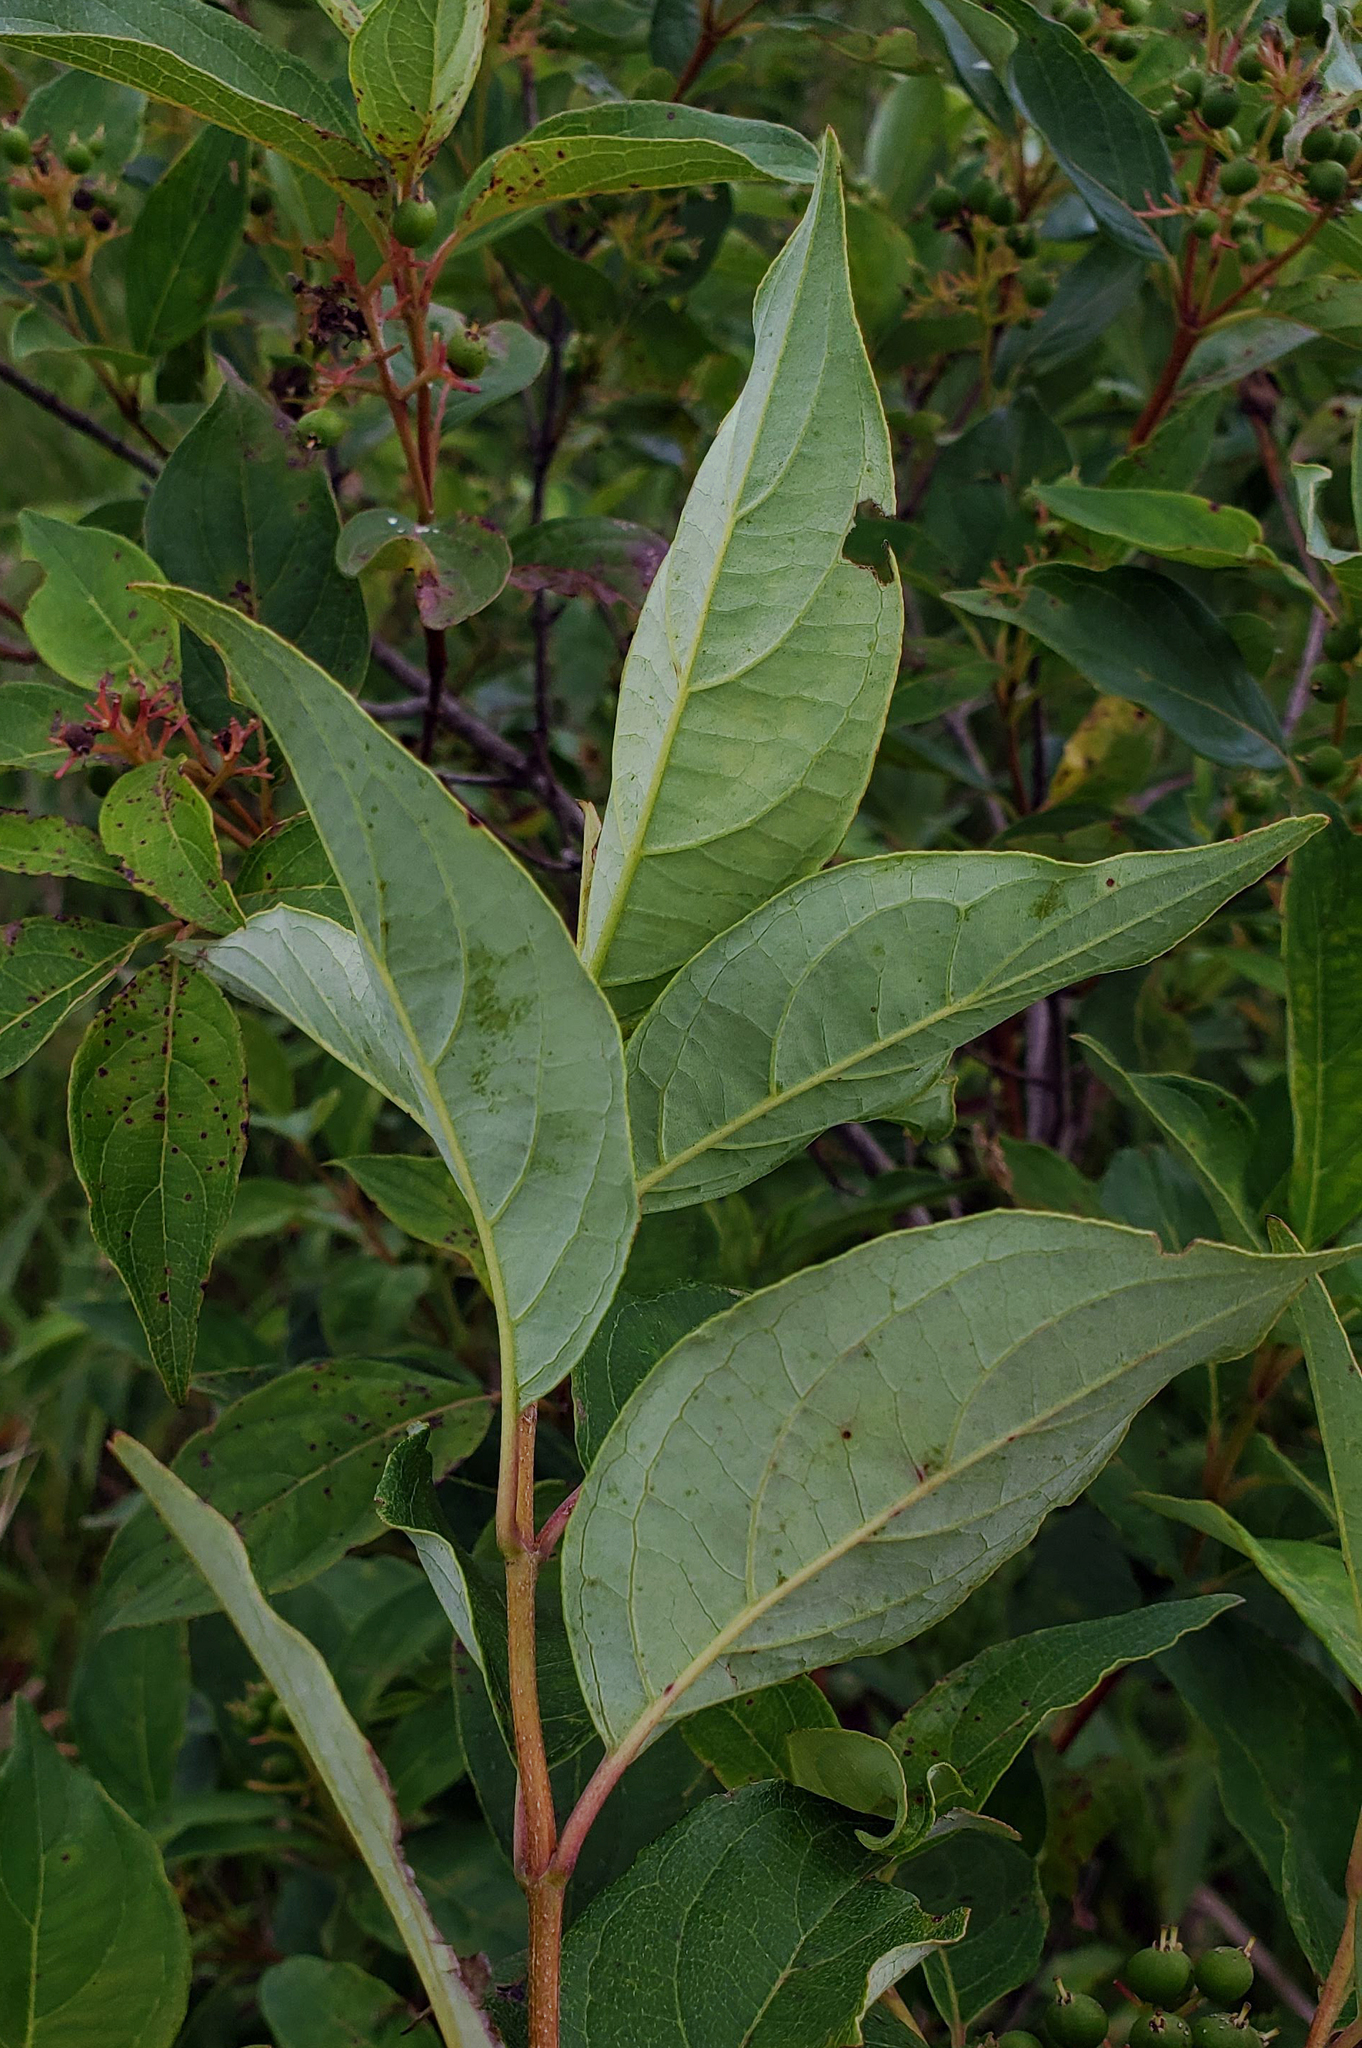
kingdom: Plantae
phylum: Tracheophyta
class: Magnoliopsida
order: Cornales
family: Cornaceae
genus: Cornus
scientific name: Cornus racemosa
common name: Panicled dogwood
